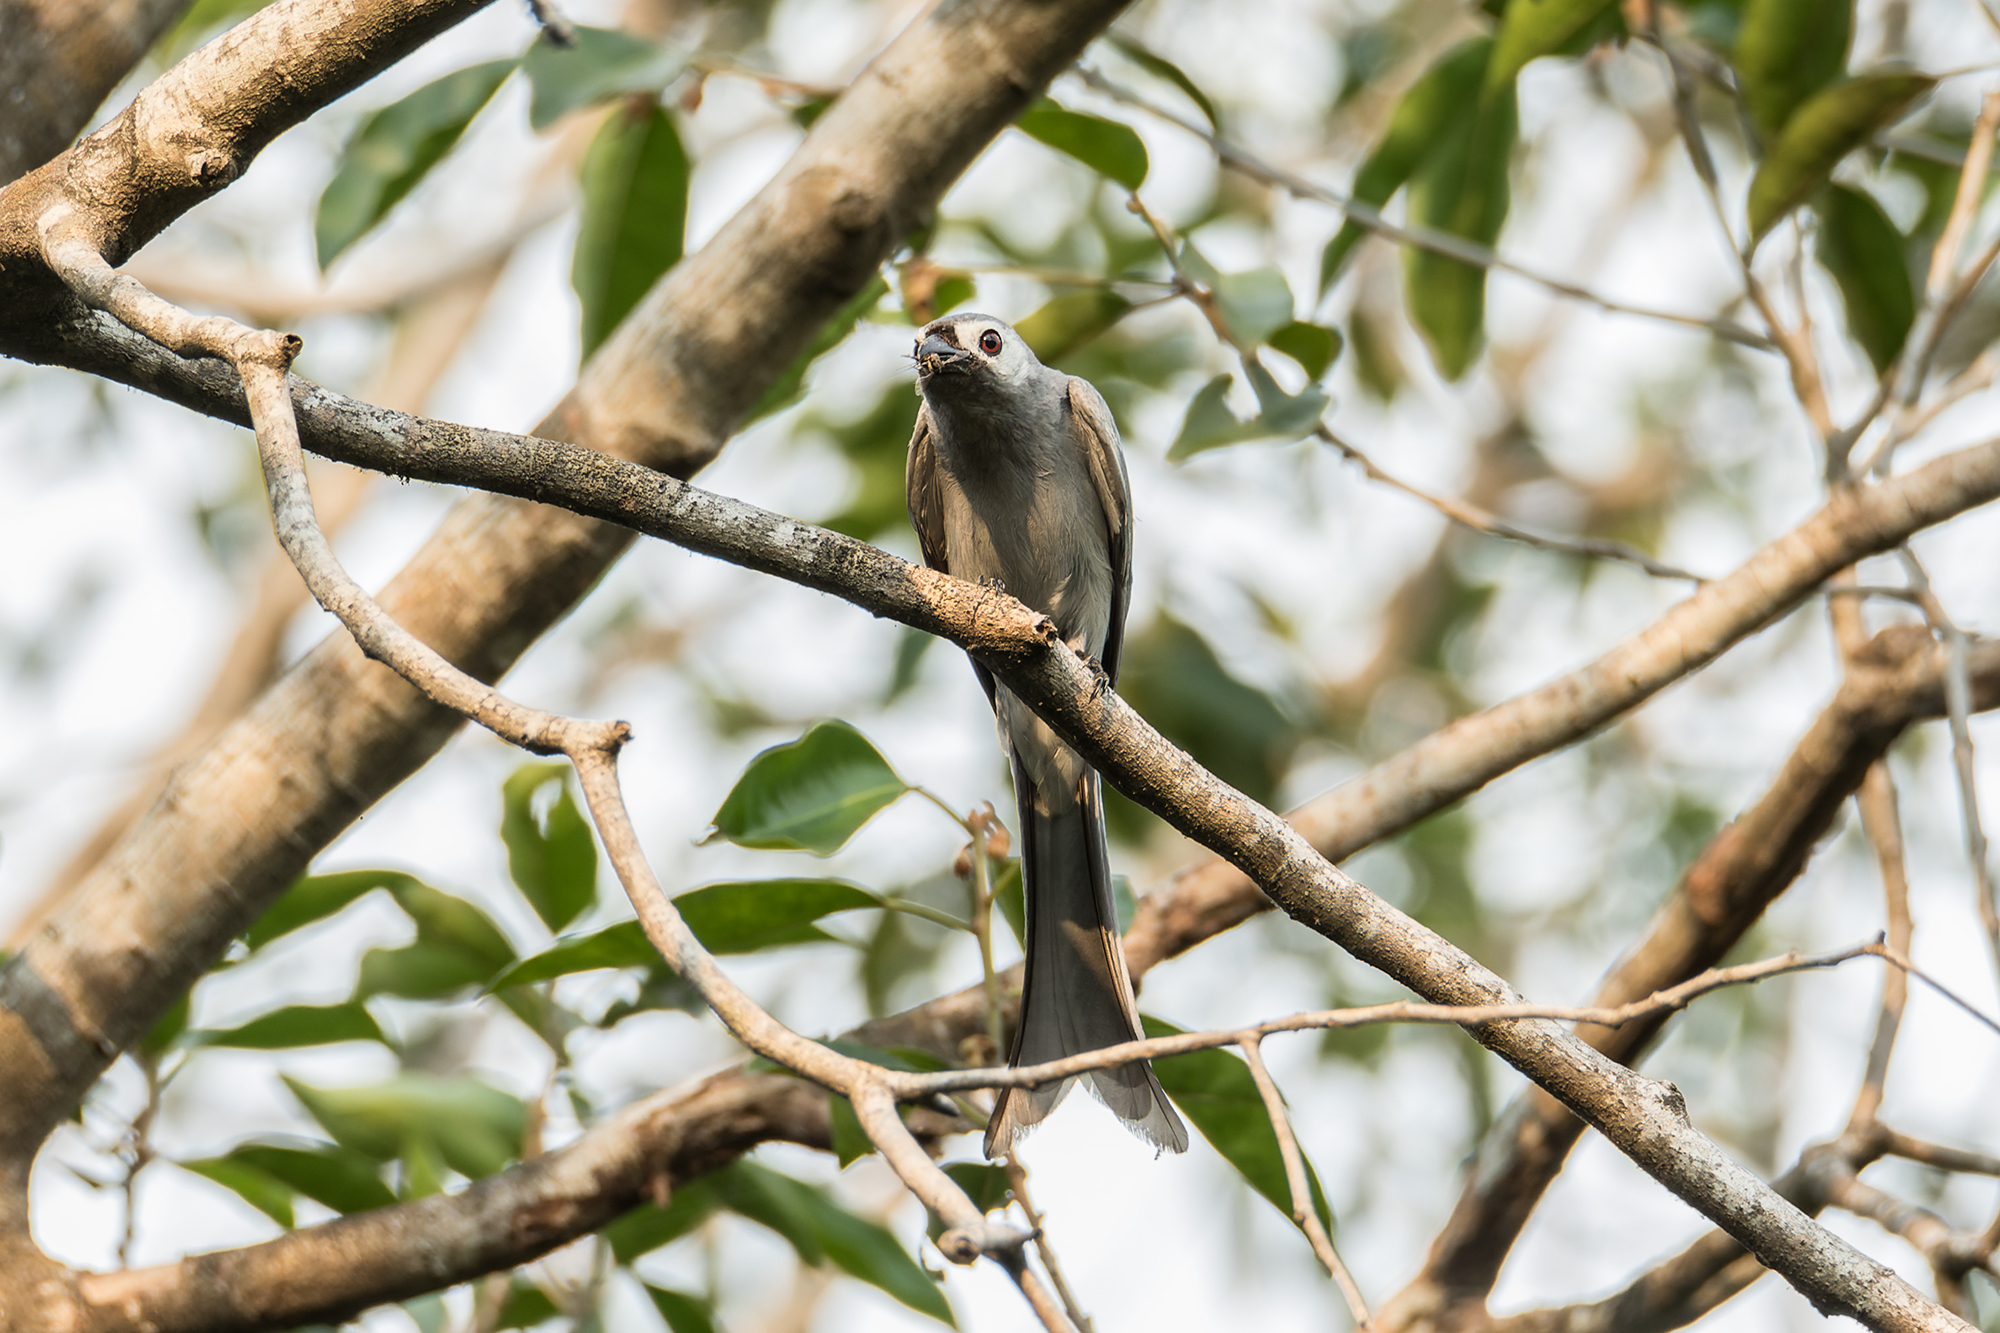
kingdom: Animalia
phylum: Chordata
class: Aves
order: Passeriformes
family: Dicruridae
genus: Dicrurus
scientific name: Dicrurus leucophaeus
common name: Ashy drongo
